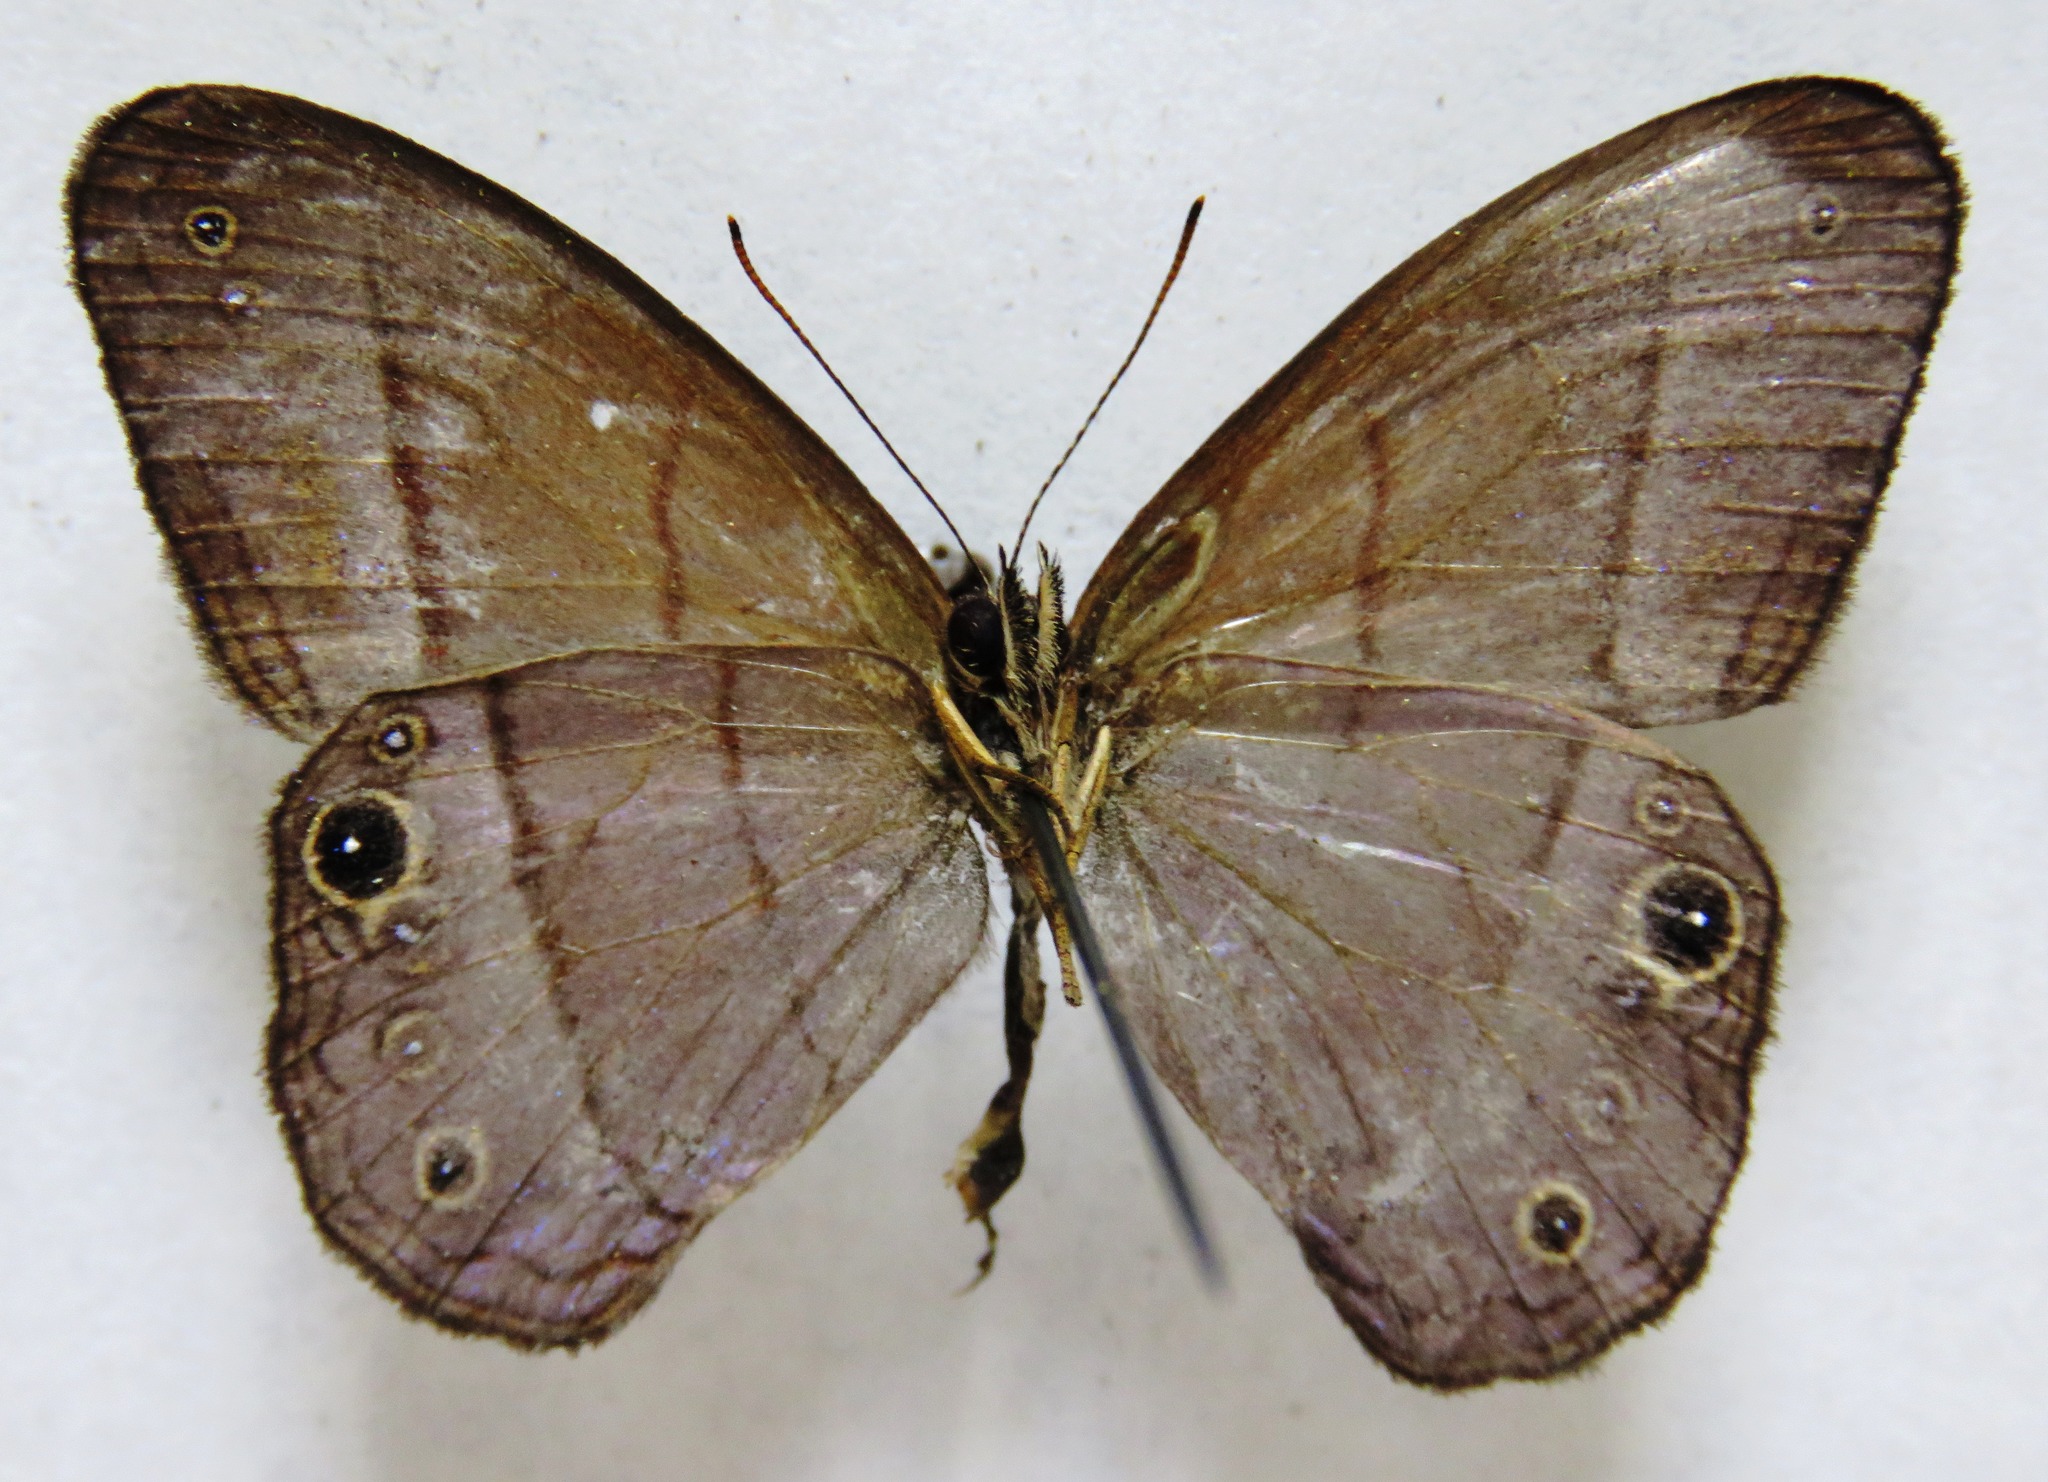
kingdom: Animalia
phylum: Arthropoda
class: Insecta
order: Lepidoptera
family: Nymphalidae
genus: Amiga
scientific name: Amiga arnaca
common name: Blue-topped satyr
